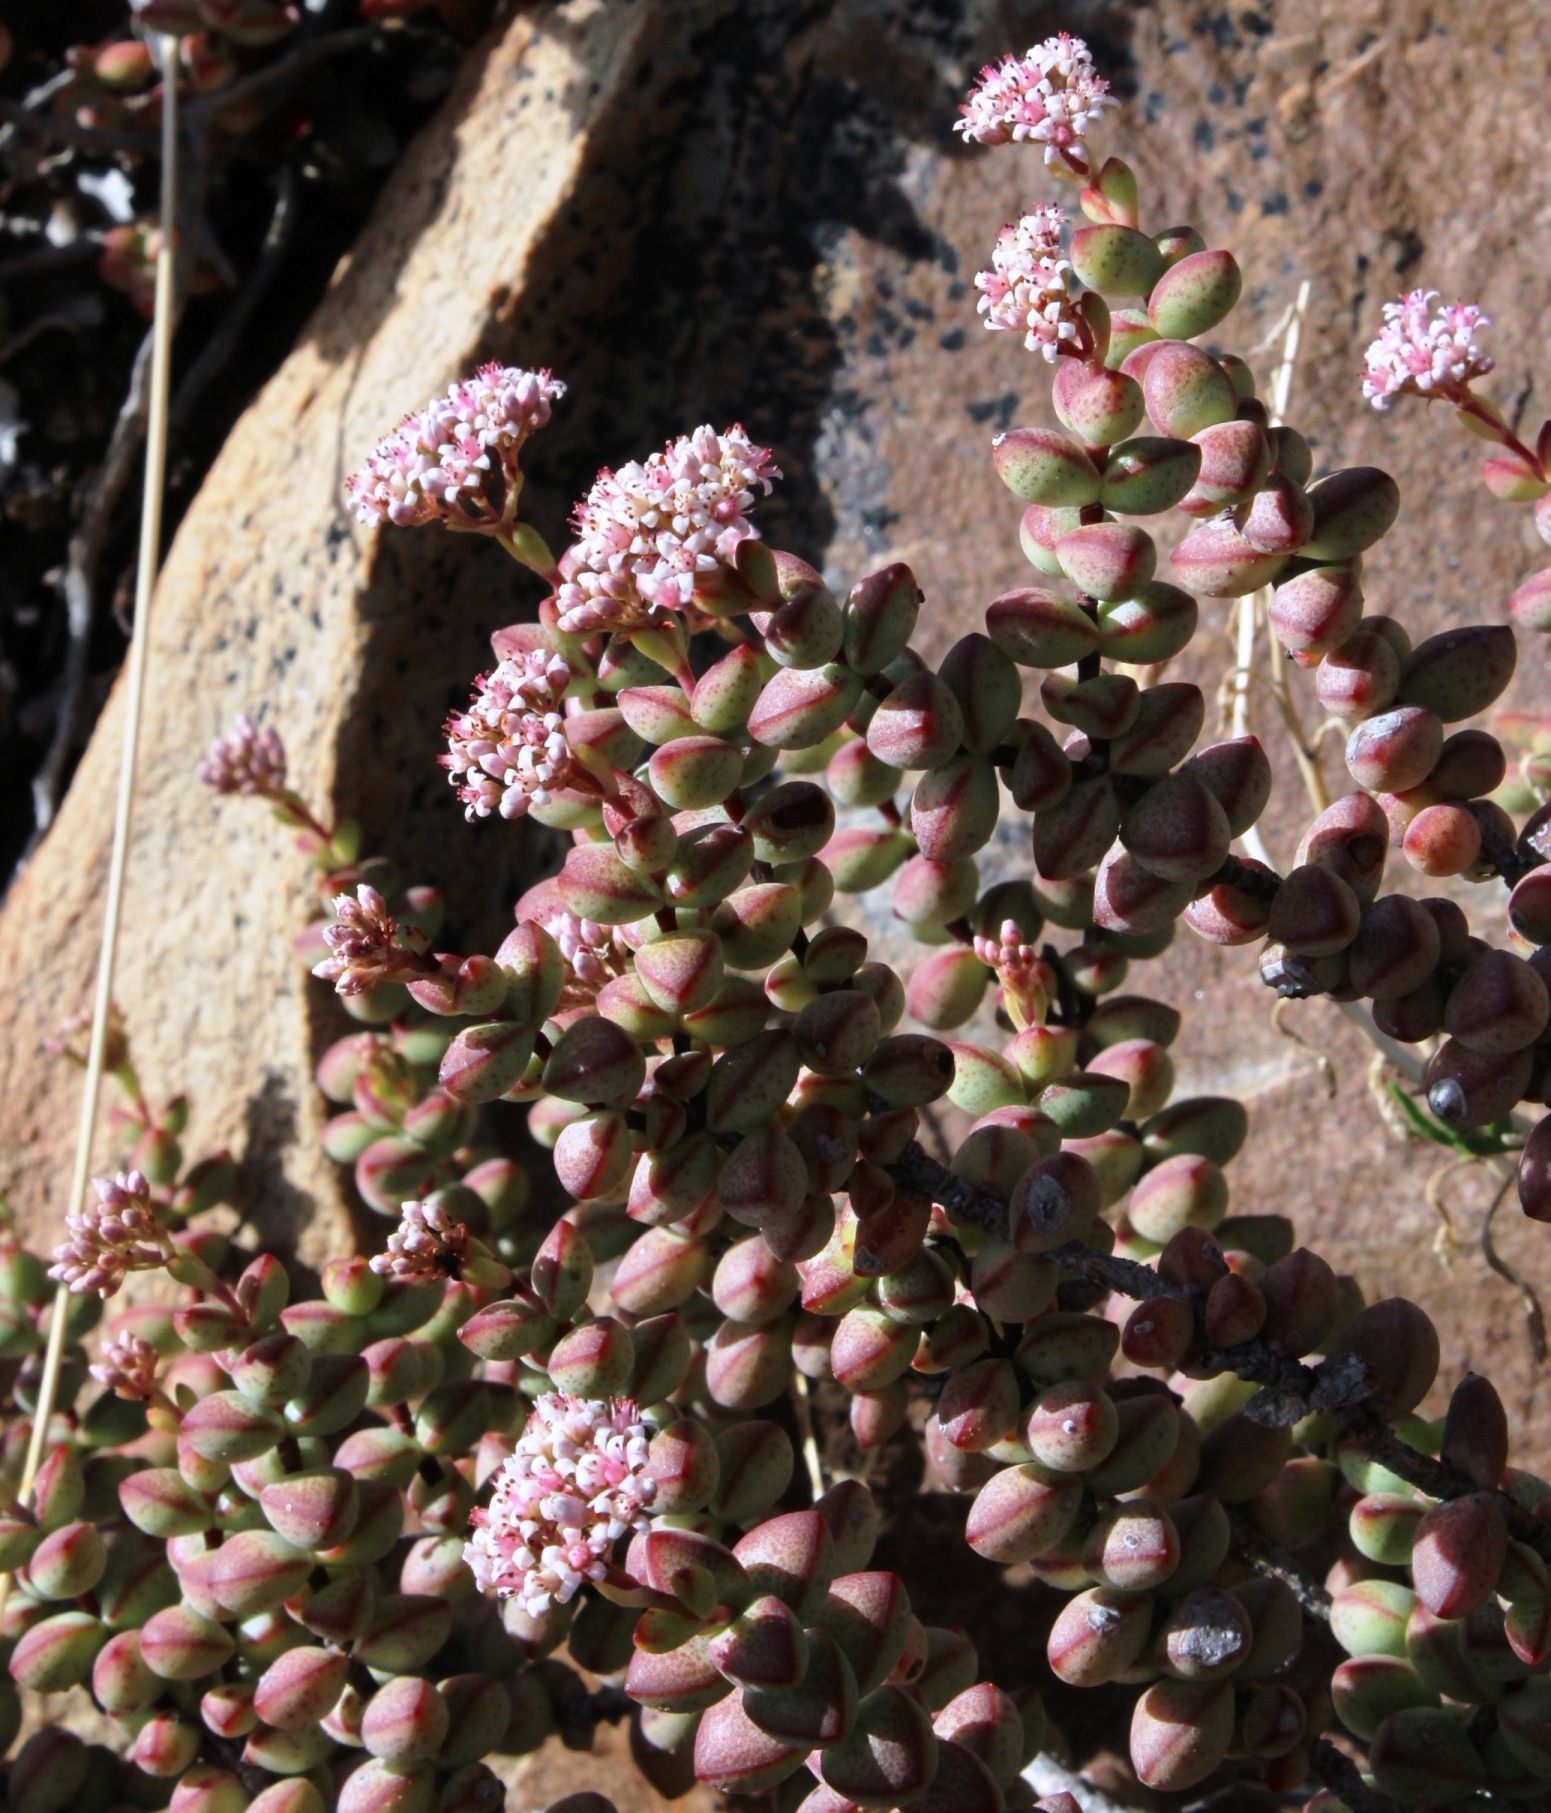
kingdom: Plantae
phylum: Tracheophyta
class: Magnoliopsida
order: Saxifragales
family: Crassulaceae
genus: Crassula
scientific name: Crassula rupestris
